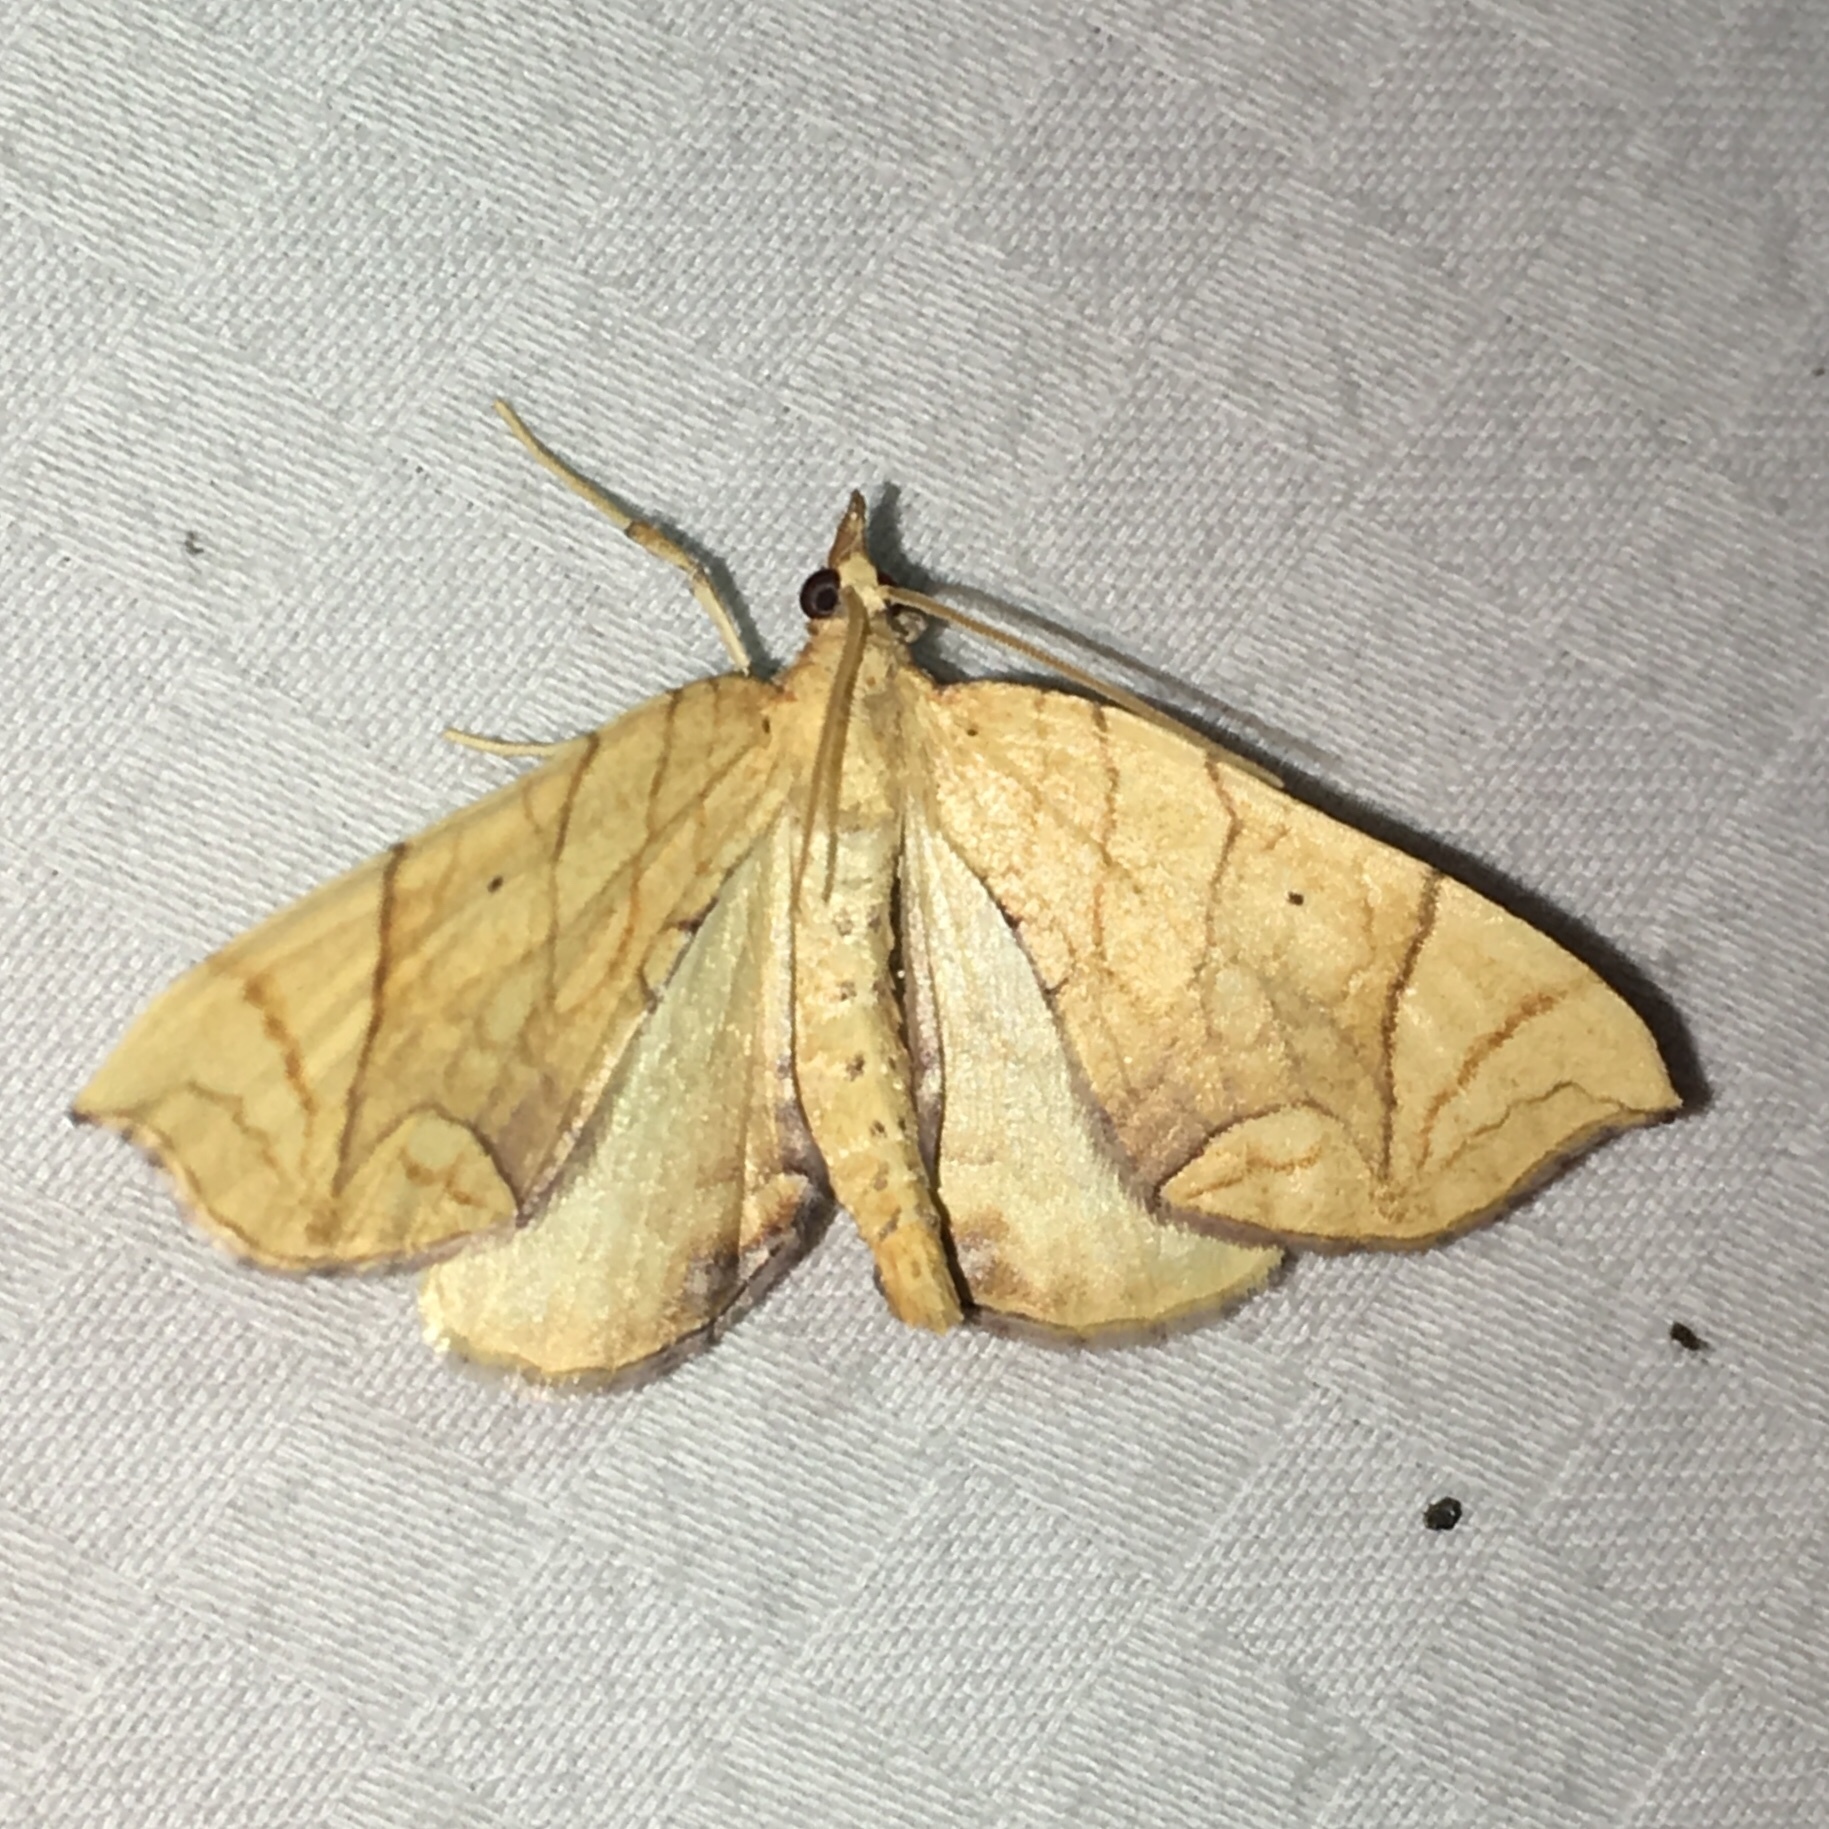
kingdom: Animalia
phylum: Arthropoda
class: Insecta
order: Lepidoptera
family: Geometridae
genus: Eulithis
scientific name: Eulithis
